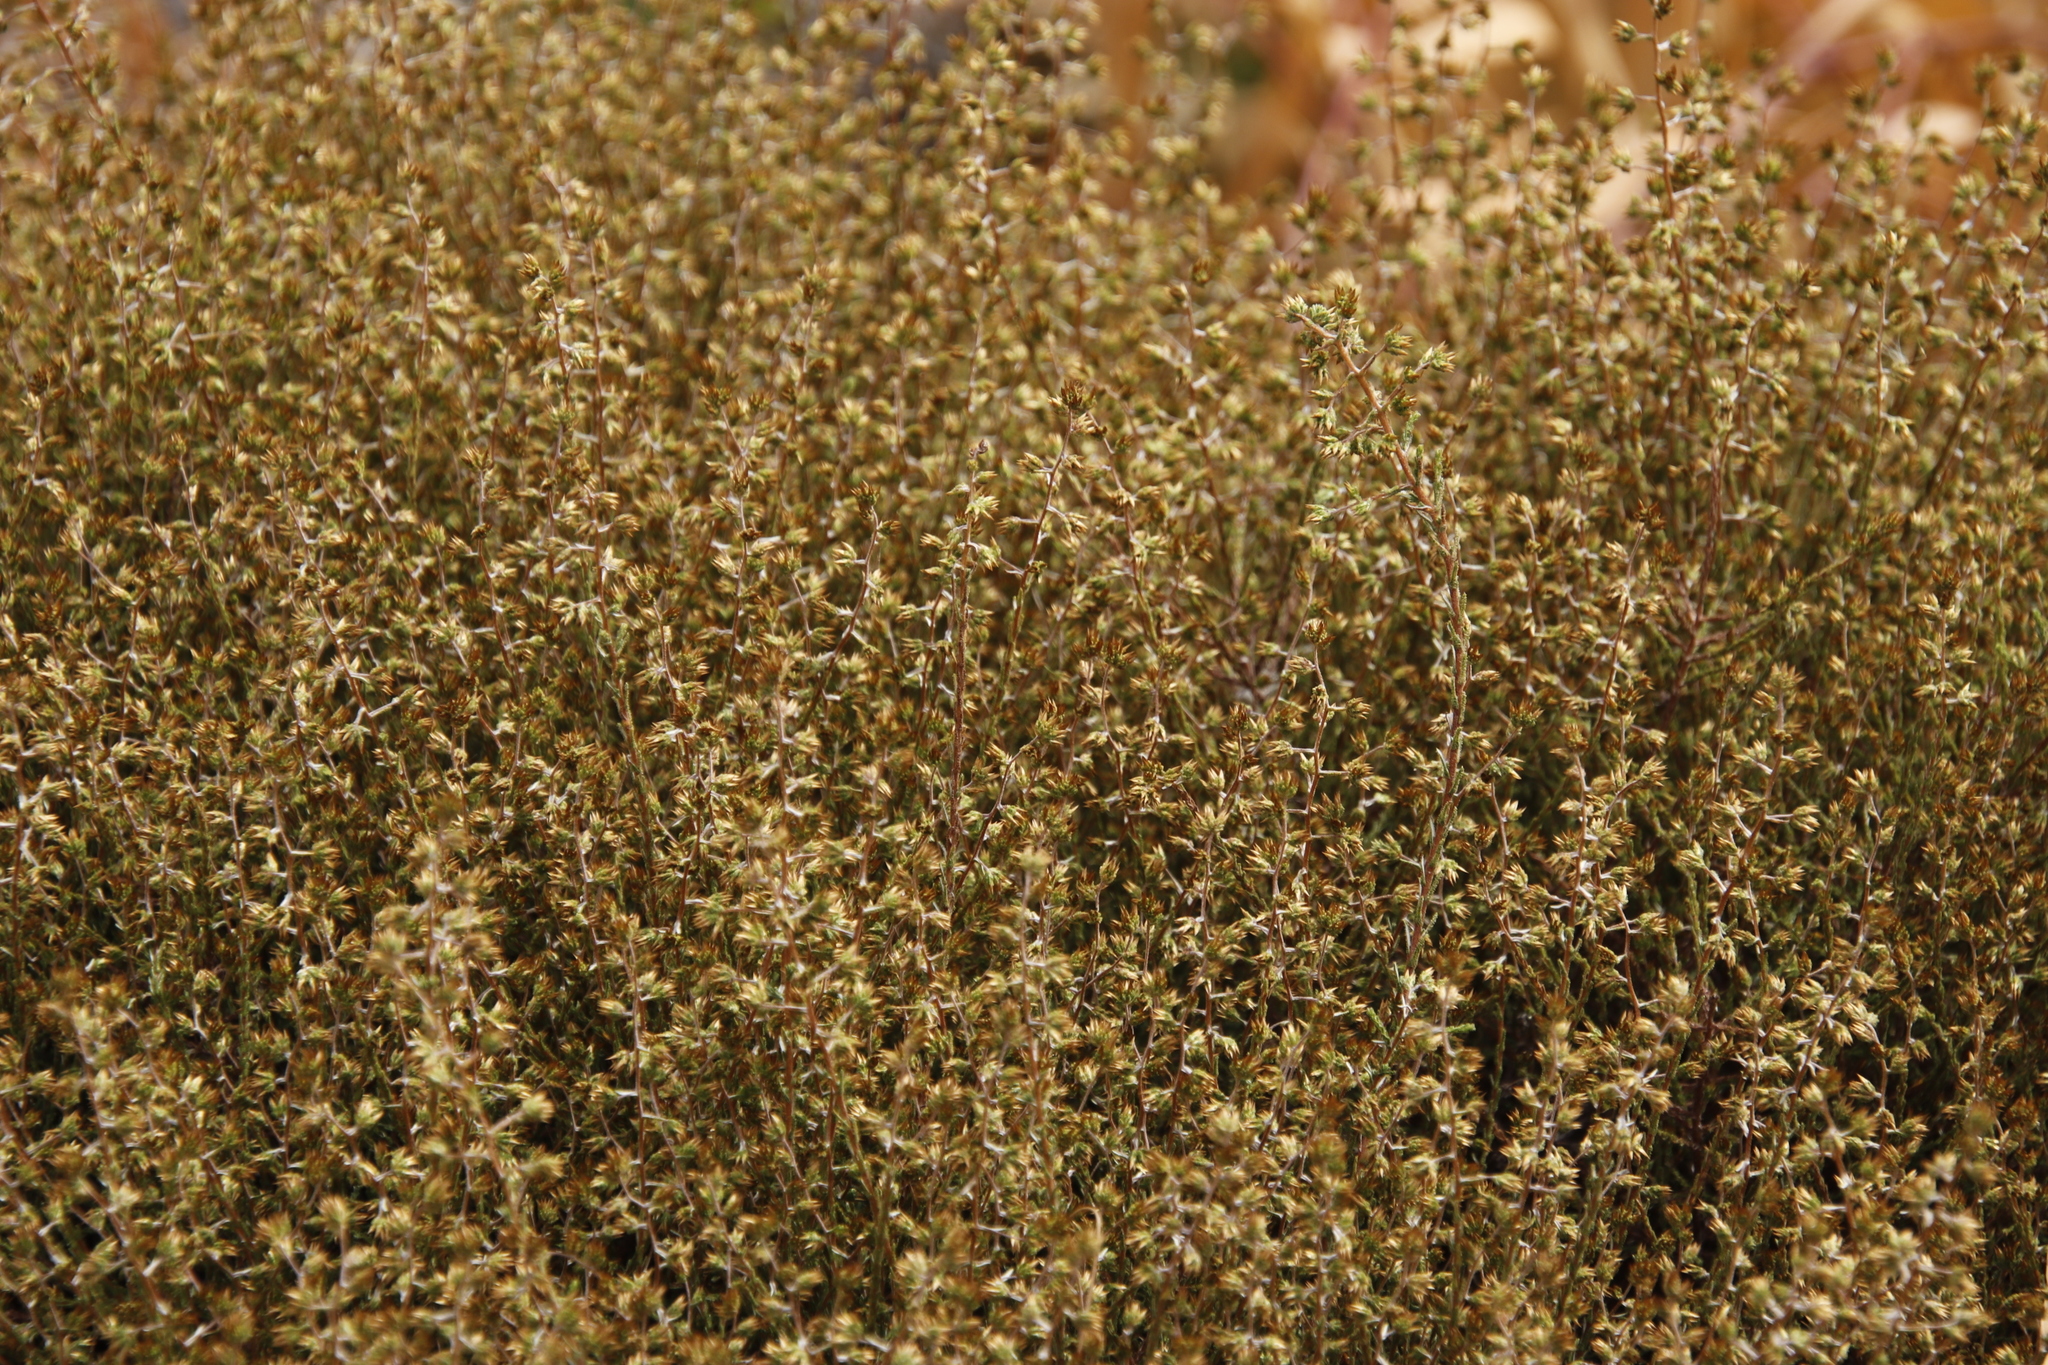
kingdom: Plantae
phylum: Tracheophyta
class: Magnoliopsida
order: Asterales
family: Asteraceae
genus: Myrovernix
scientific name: Myrovernix scaber
